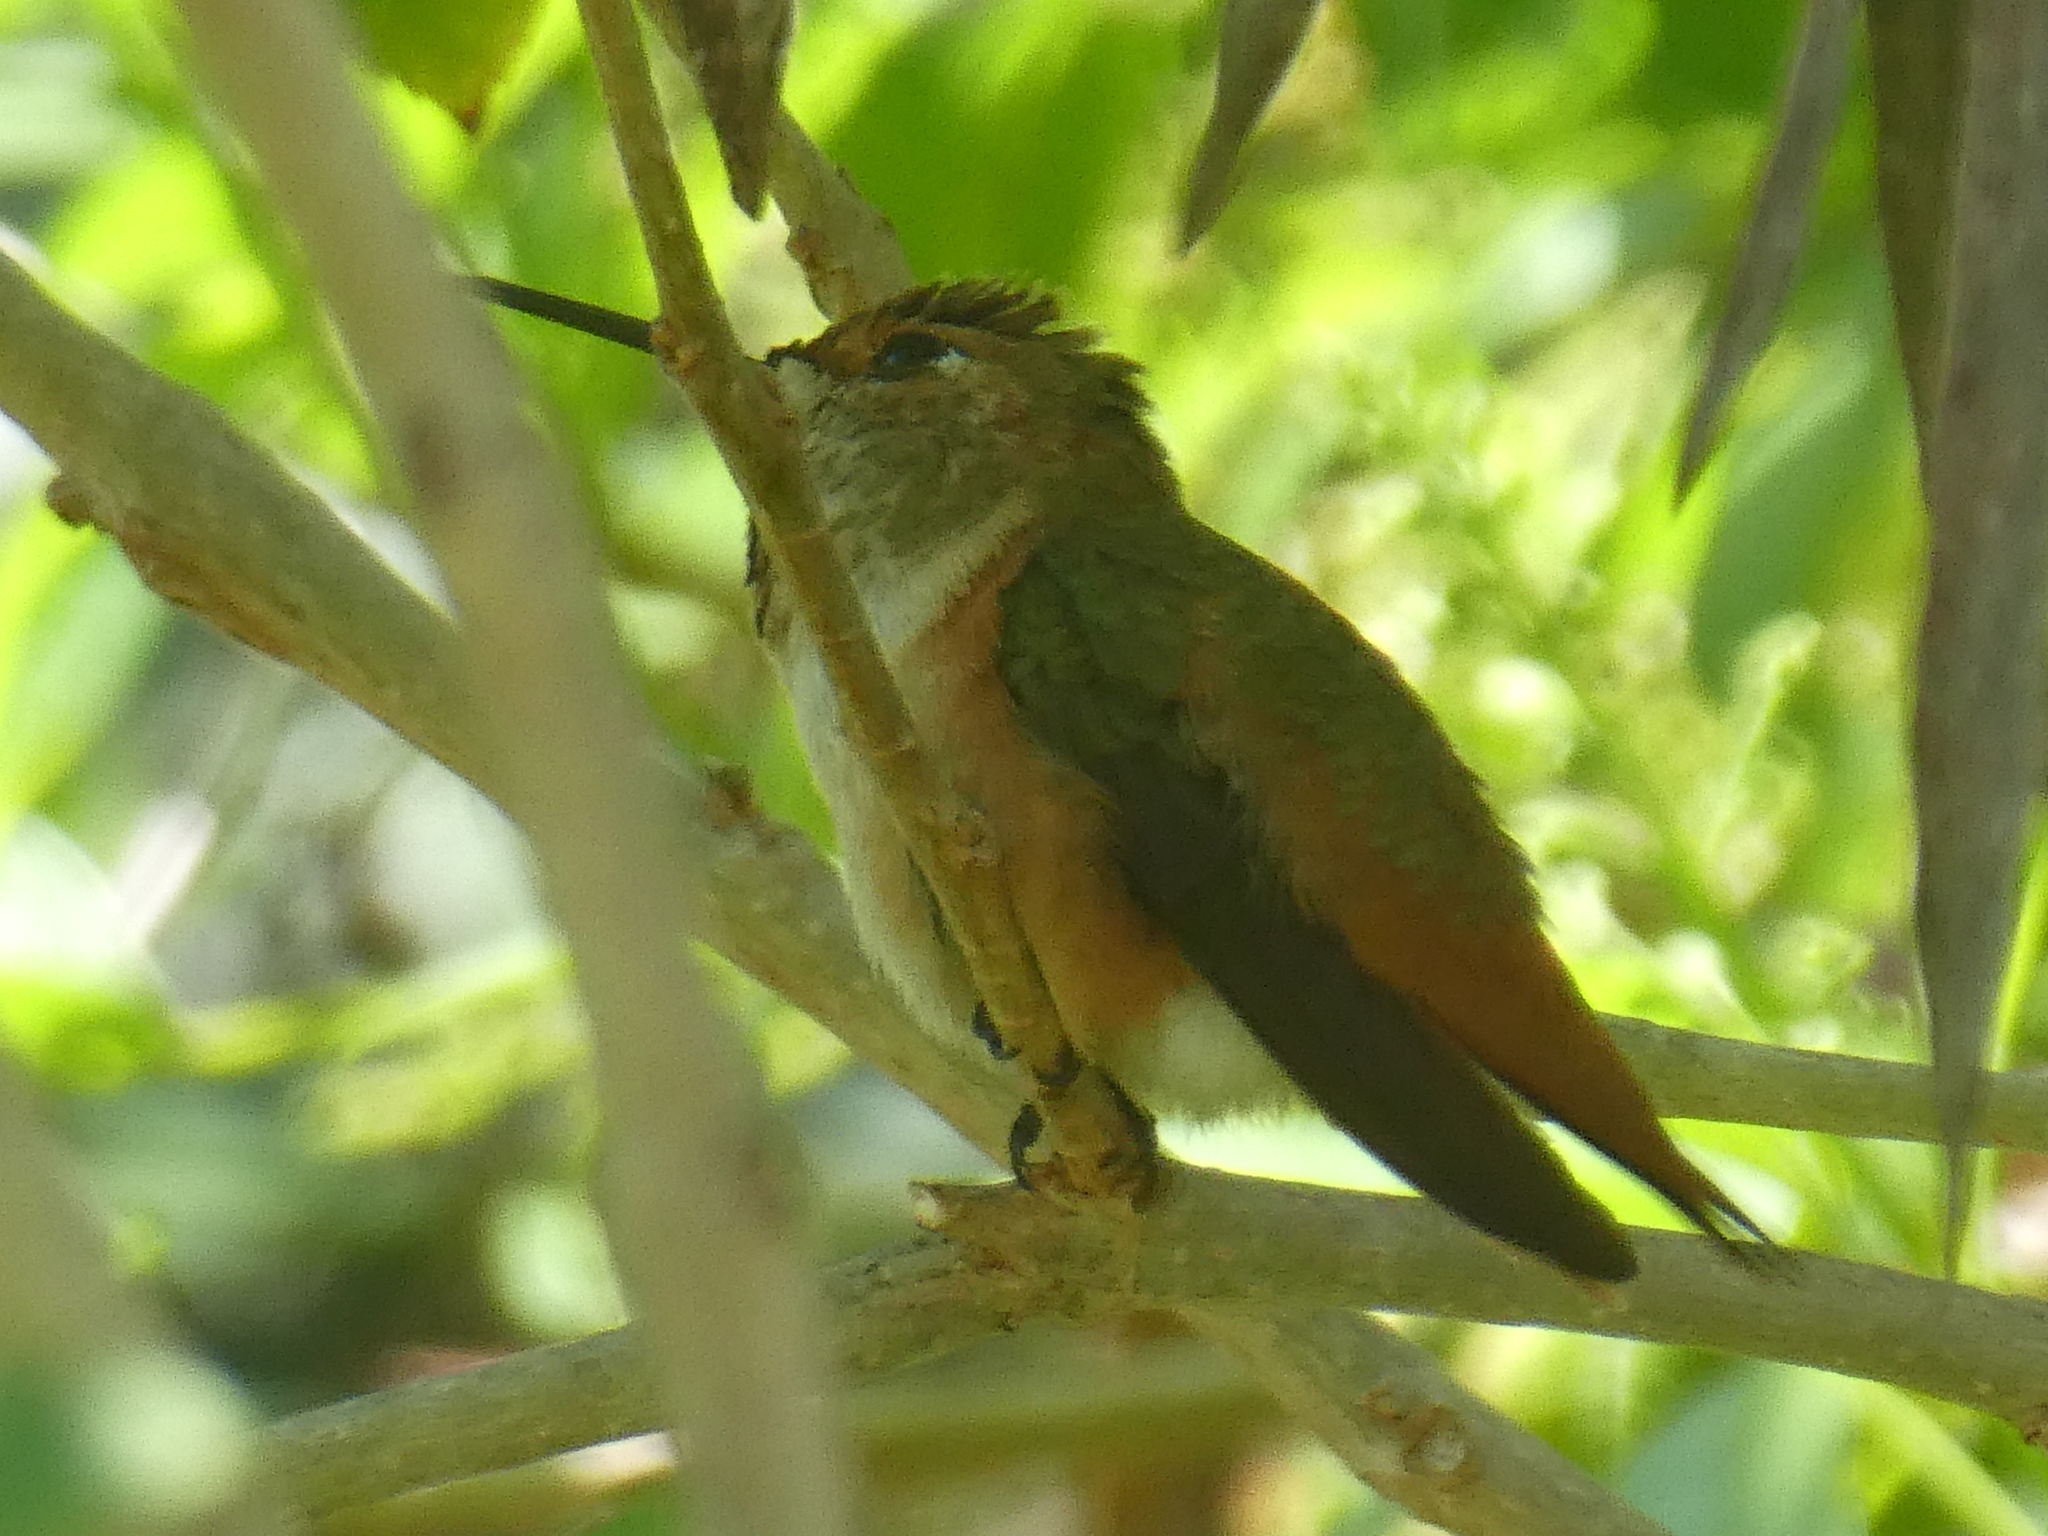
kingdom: Animalia
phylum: Chordata
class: Aves
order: Apodiformes
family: Trochilidae
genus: Selasphorus
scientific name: Selasphorus
